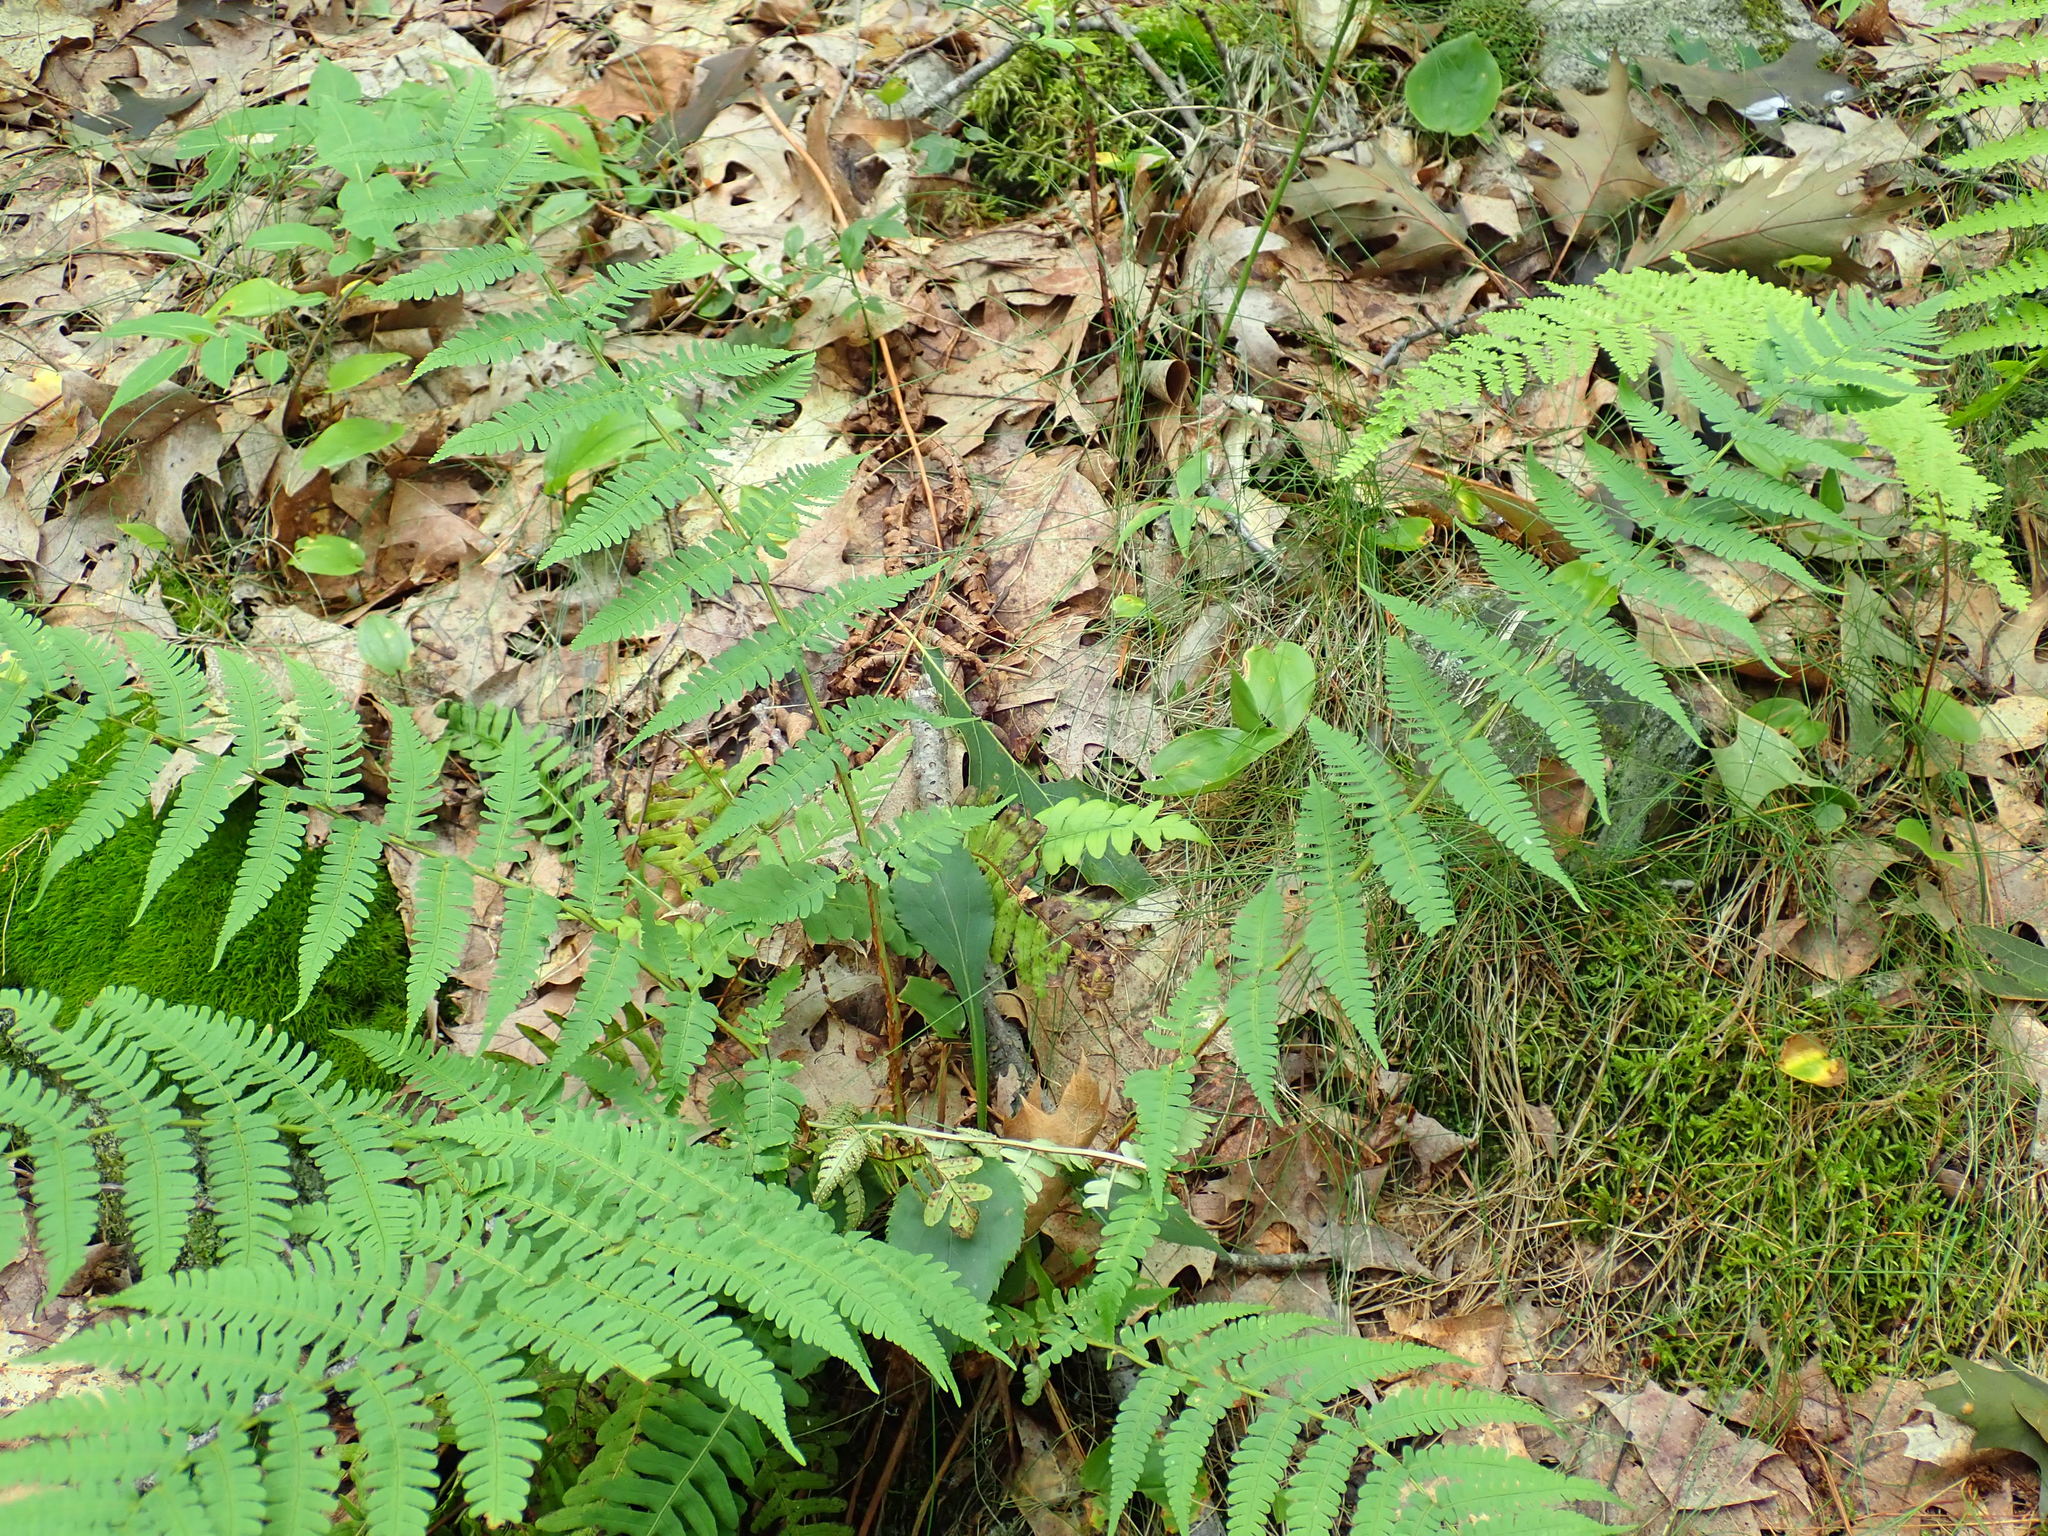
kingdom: Plantae
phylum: Tracheophyta
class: Polypodiopsida
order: Polypodiales
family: Dryopteridaceae
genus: Dryopteris
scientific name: Dryopteris marginalis
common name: Marginal wood fern
